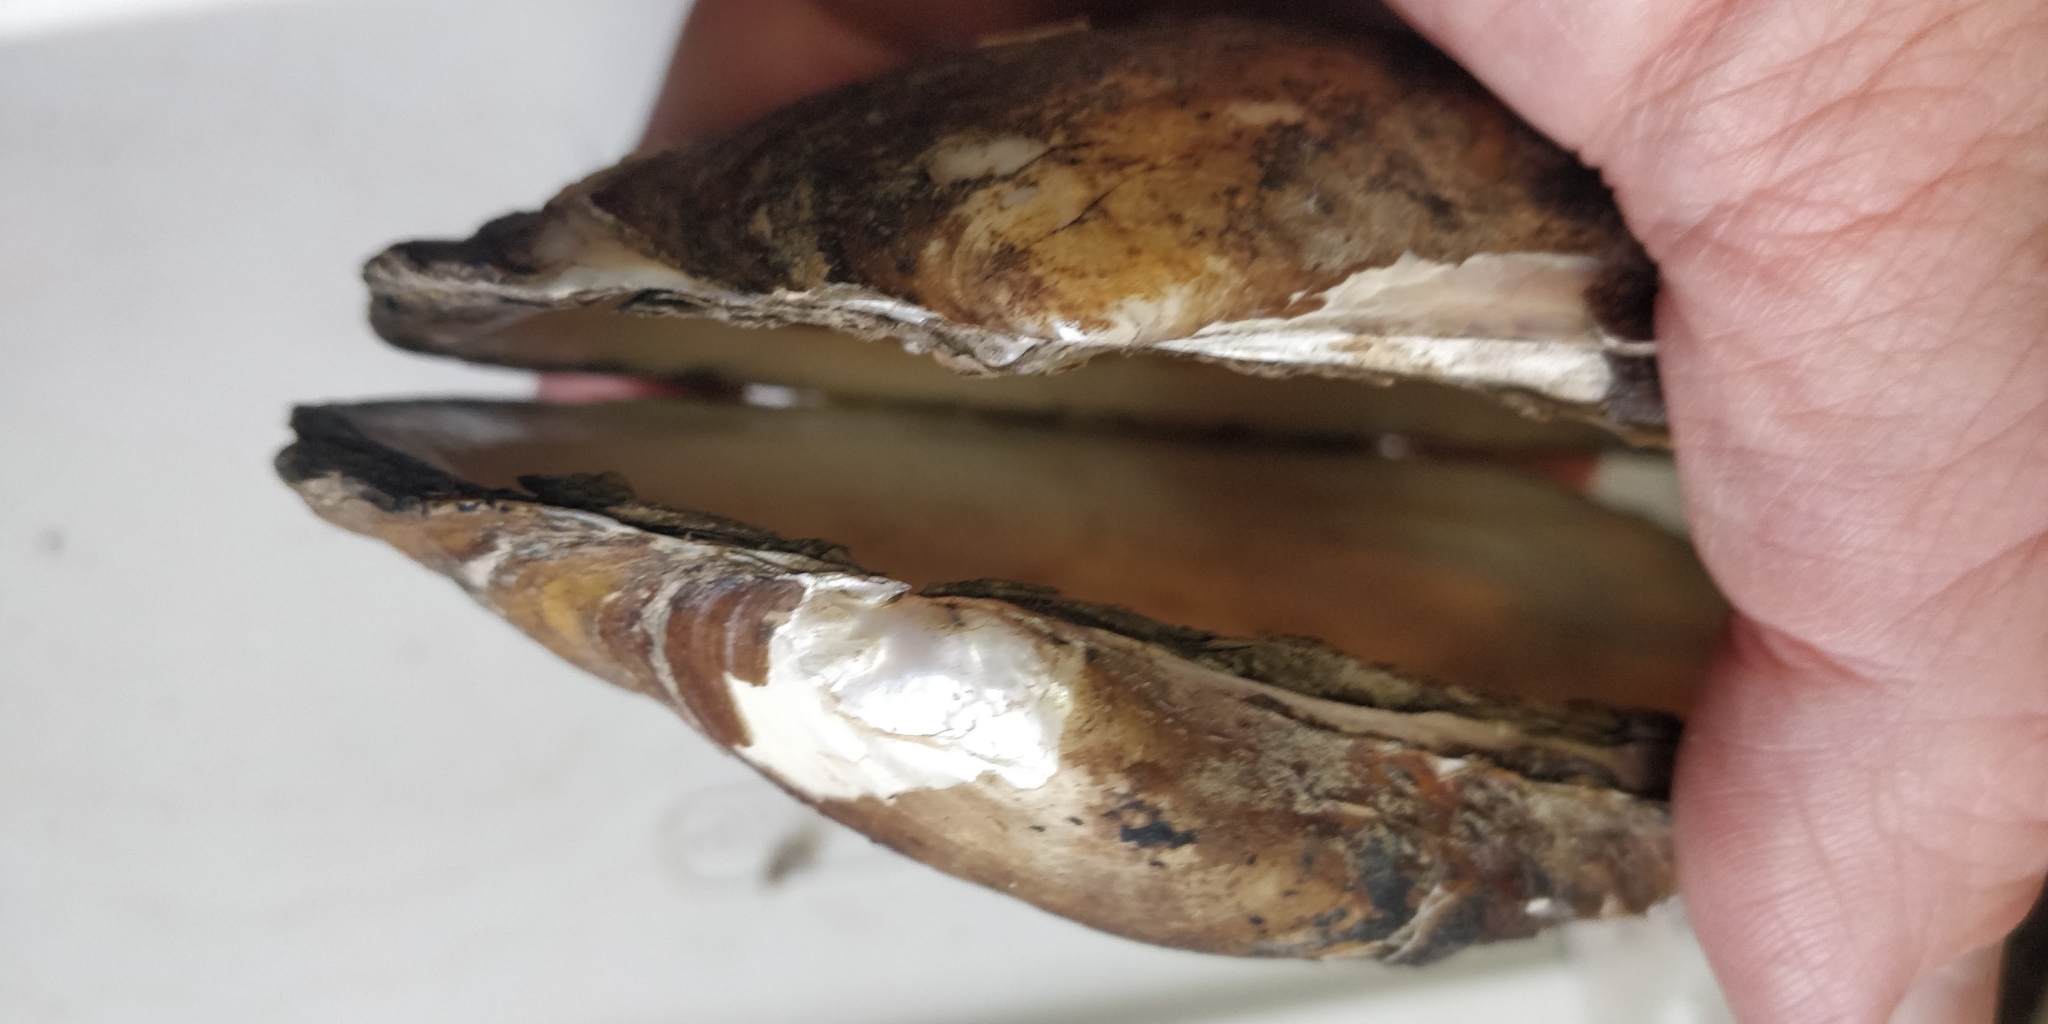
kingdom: Animalia
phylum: Mollusca
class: Bivalvia
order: Unionida
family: Unionidae
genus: Potamilus
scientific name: Potamilus fragilis
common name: Fragile papershell
